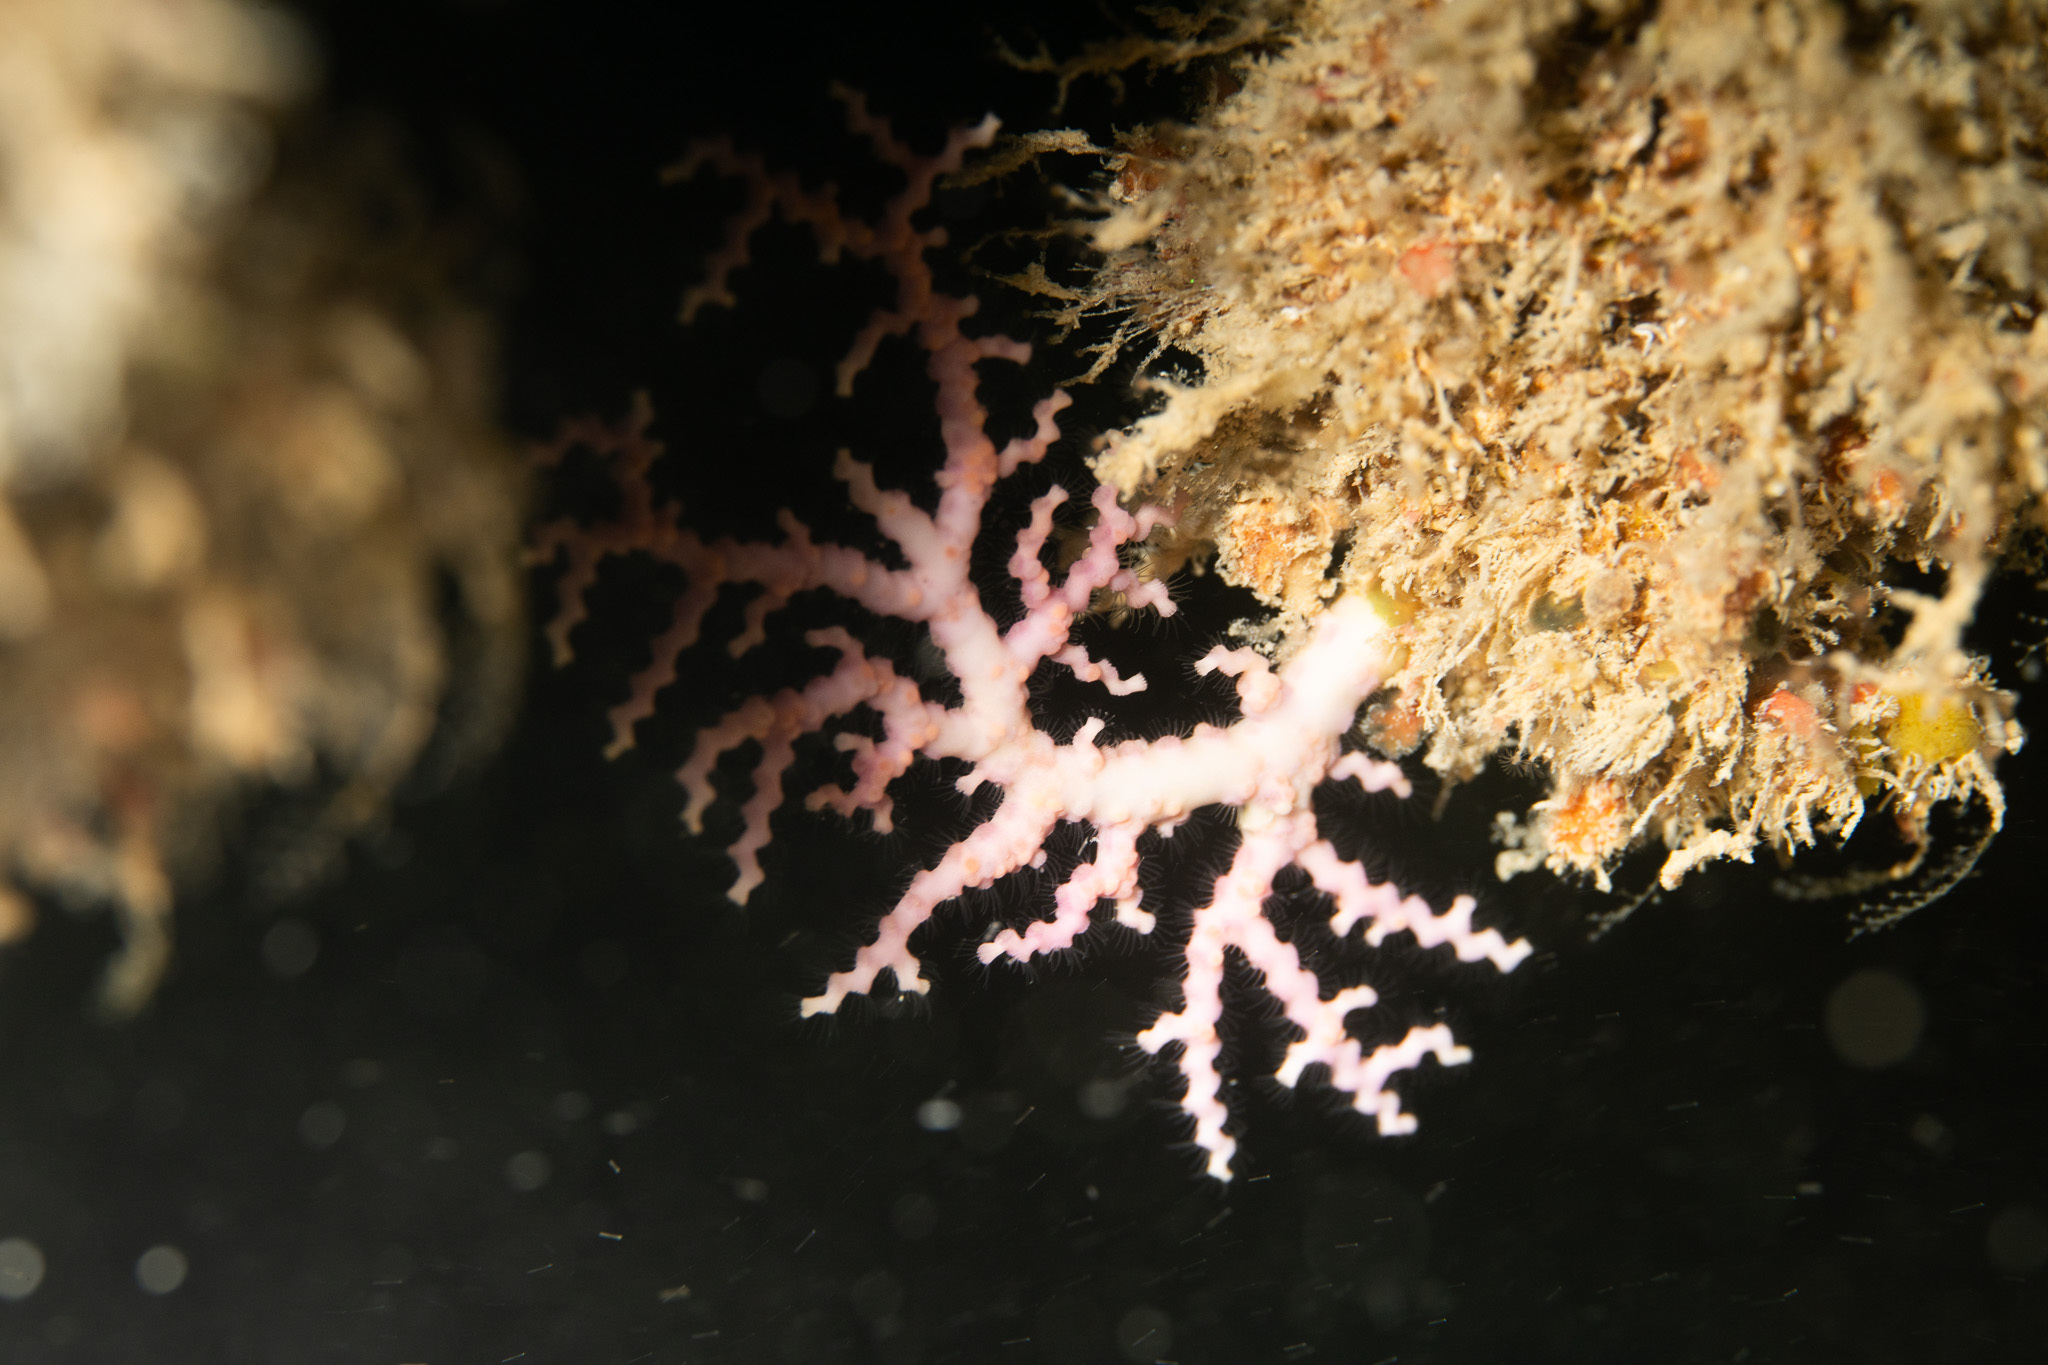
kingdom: Animalia
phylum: Cnidaria
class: Hydrozoa
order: Anthoathecata
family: Stylasteridae
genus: Stylaster
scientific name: Stylaster roseus
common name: Rose lace coral
